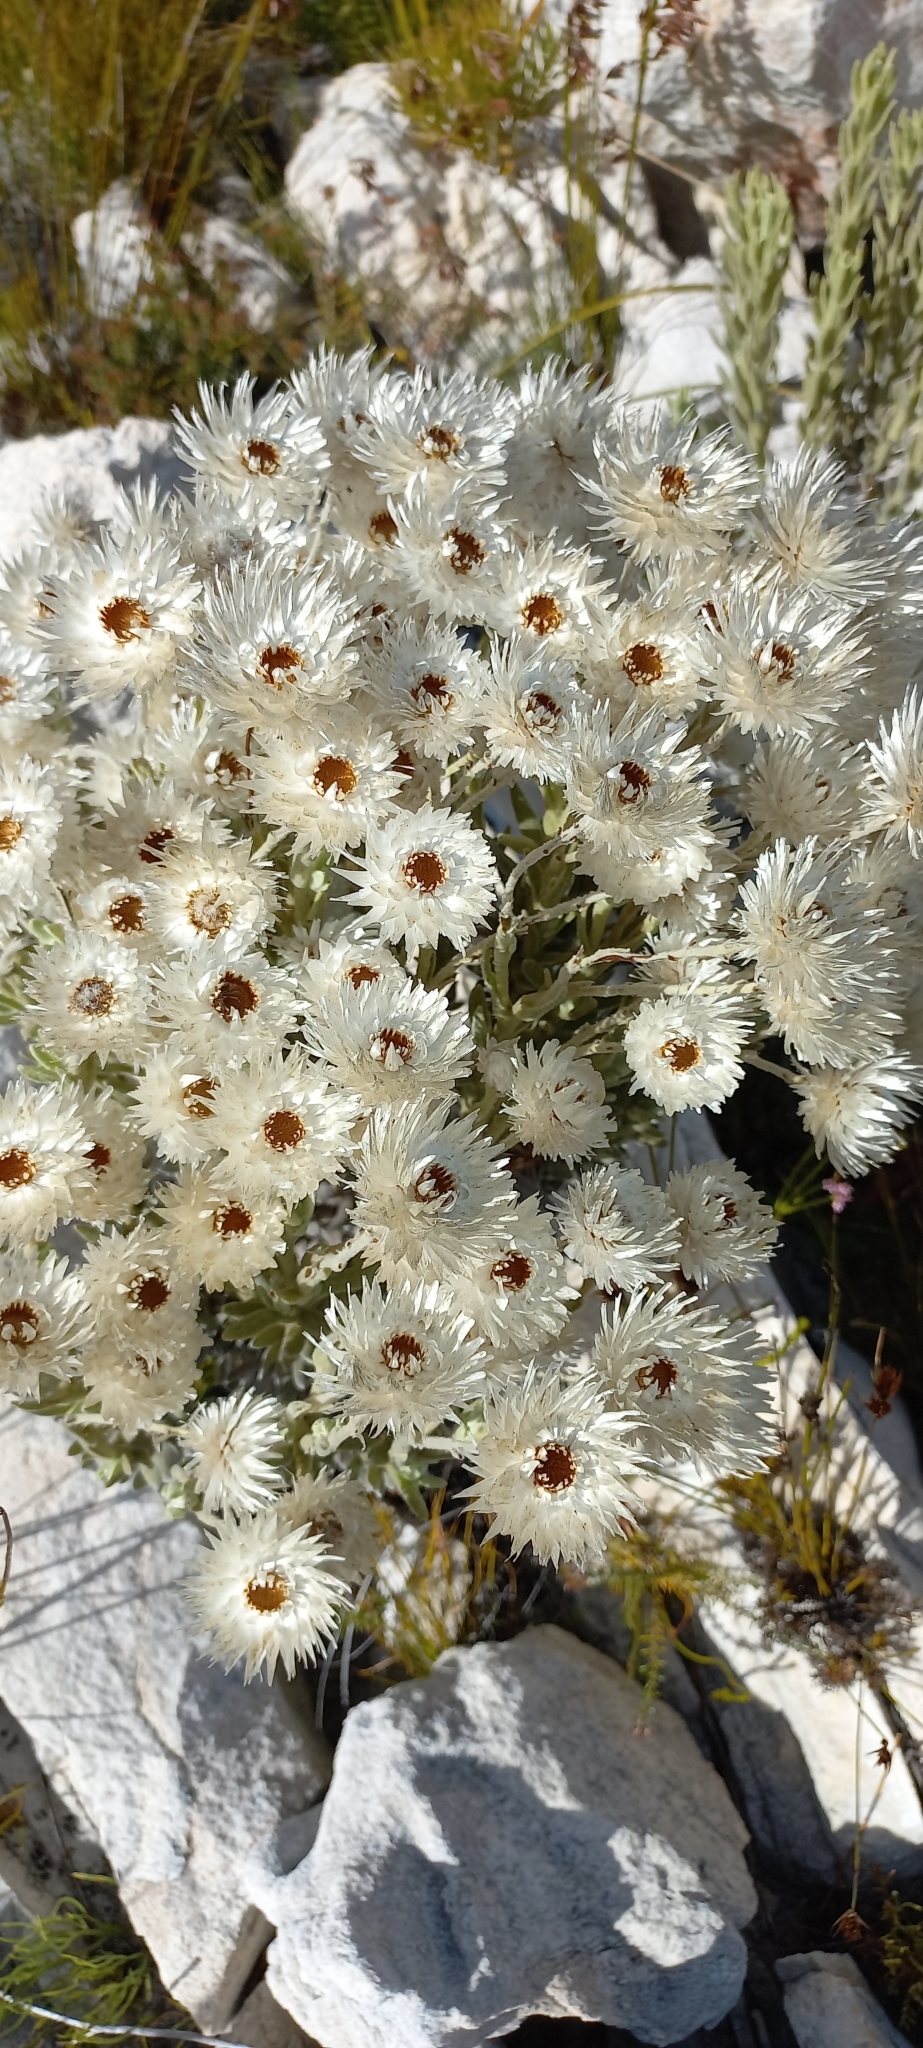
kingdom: Plantae
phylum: Tracheophyta
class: Magnoliopsida
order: Asterales
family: Asteraceae
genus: Syncarpha
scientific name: Syncarpha vestita
